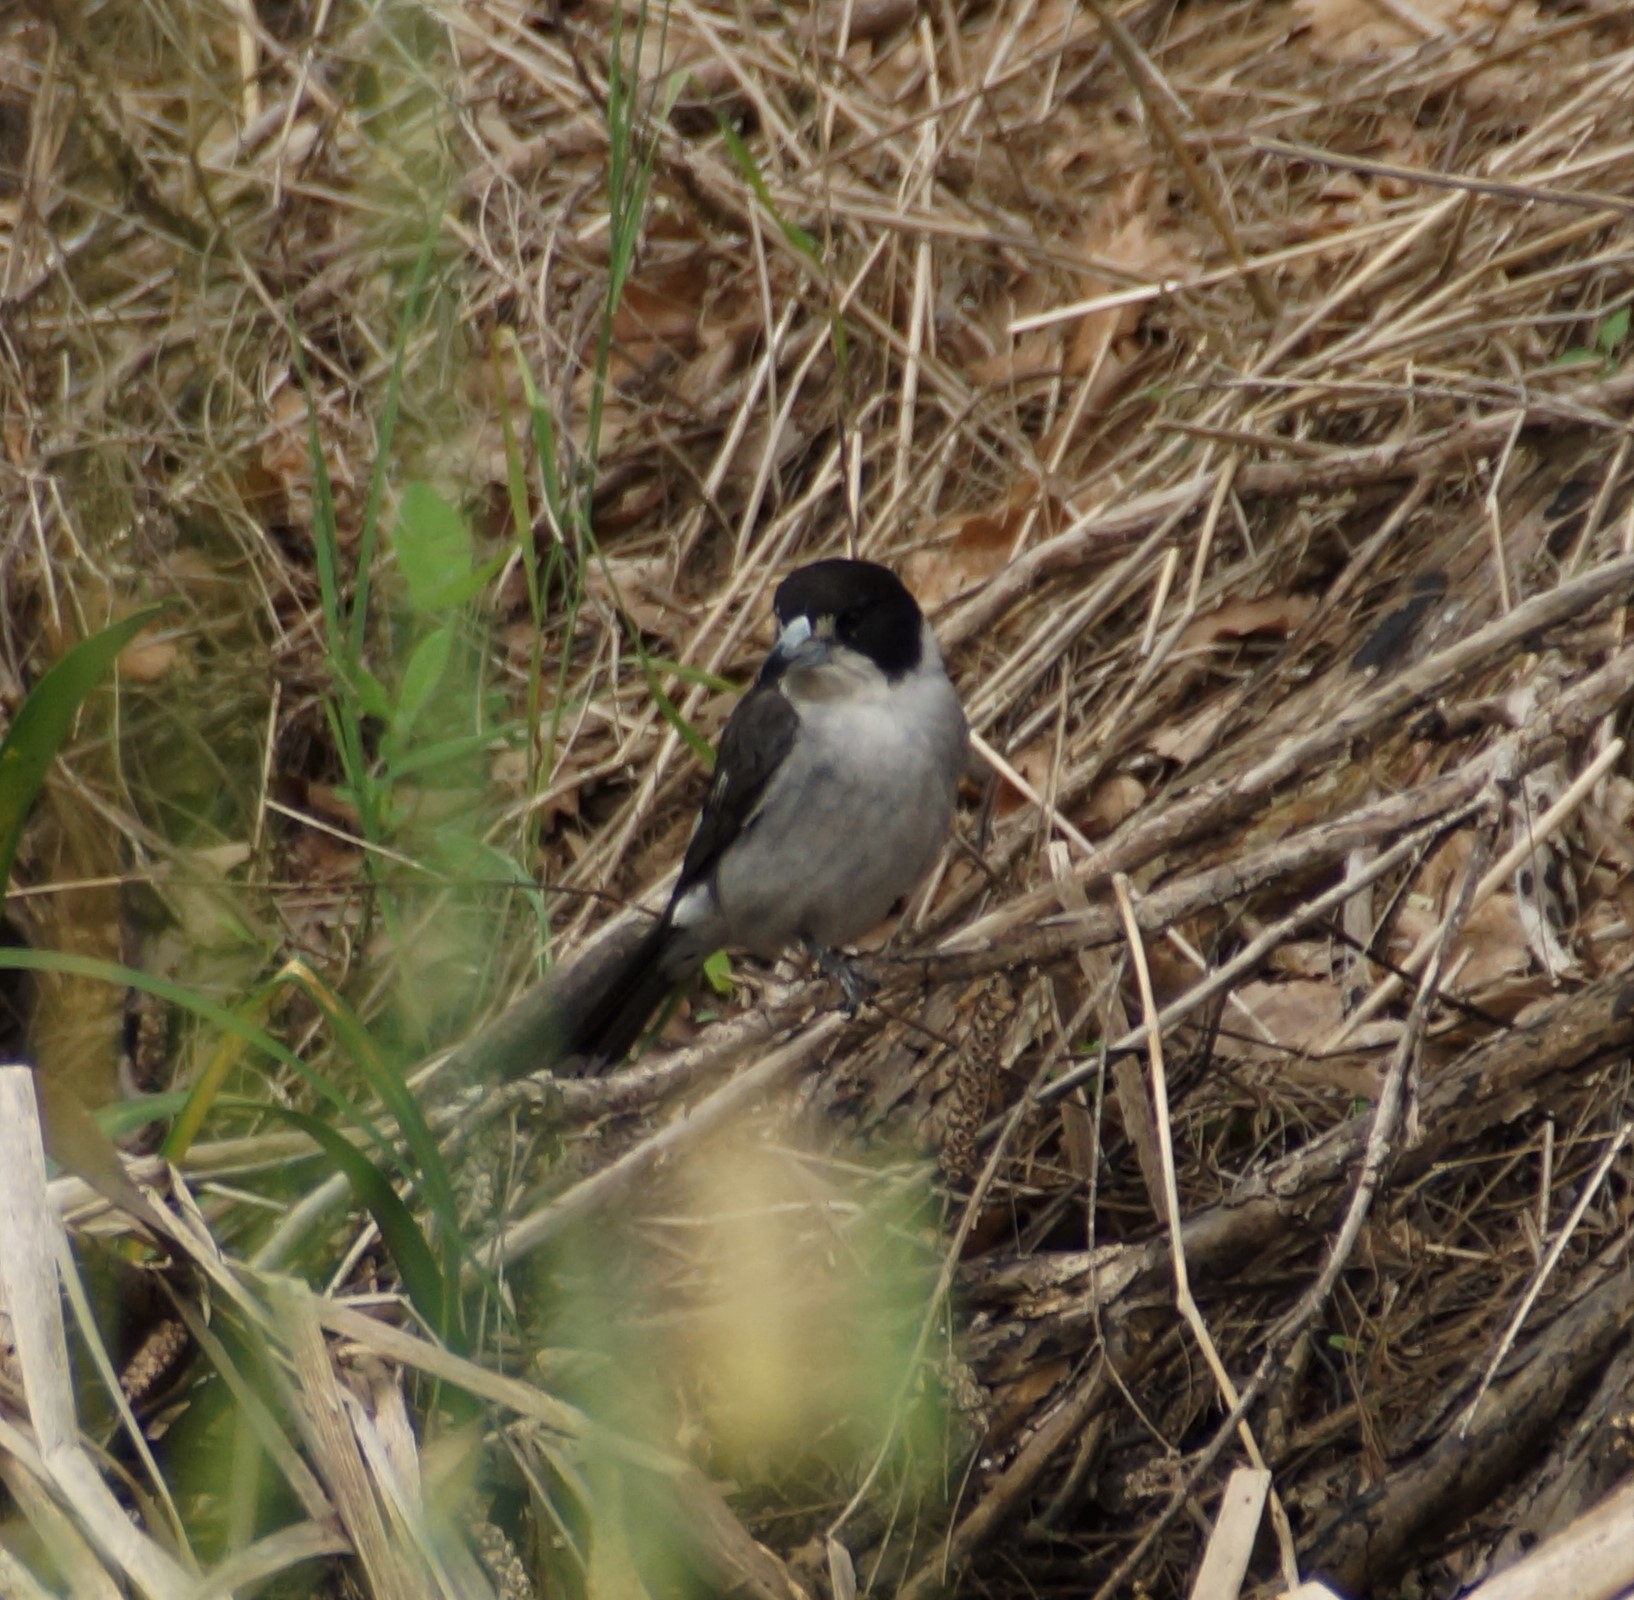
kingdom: Animalia
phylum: Chordata
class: Aves
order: Passeriformes
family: Cracticidae
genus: Cracticus
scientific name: Cracticus torquatus
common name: Grey butcherbird
